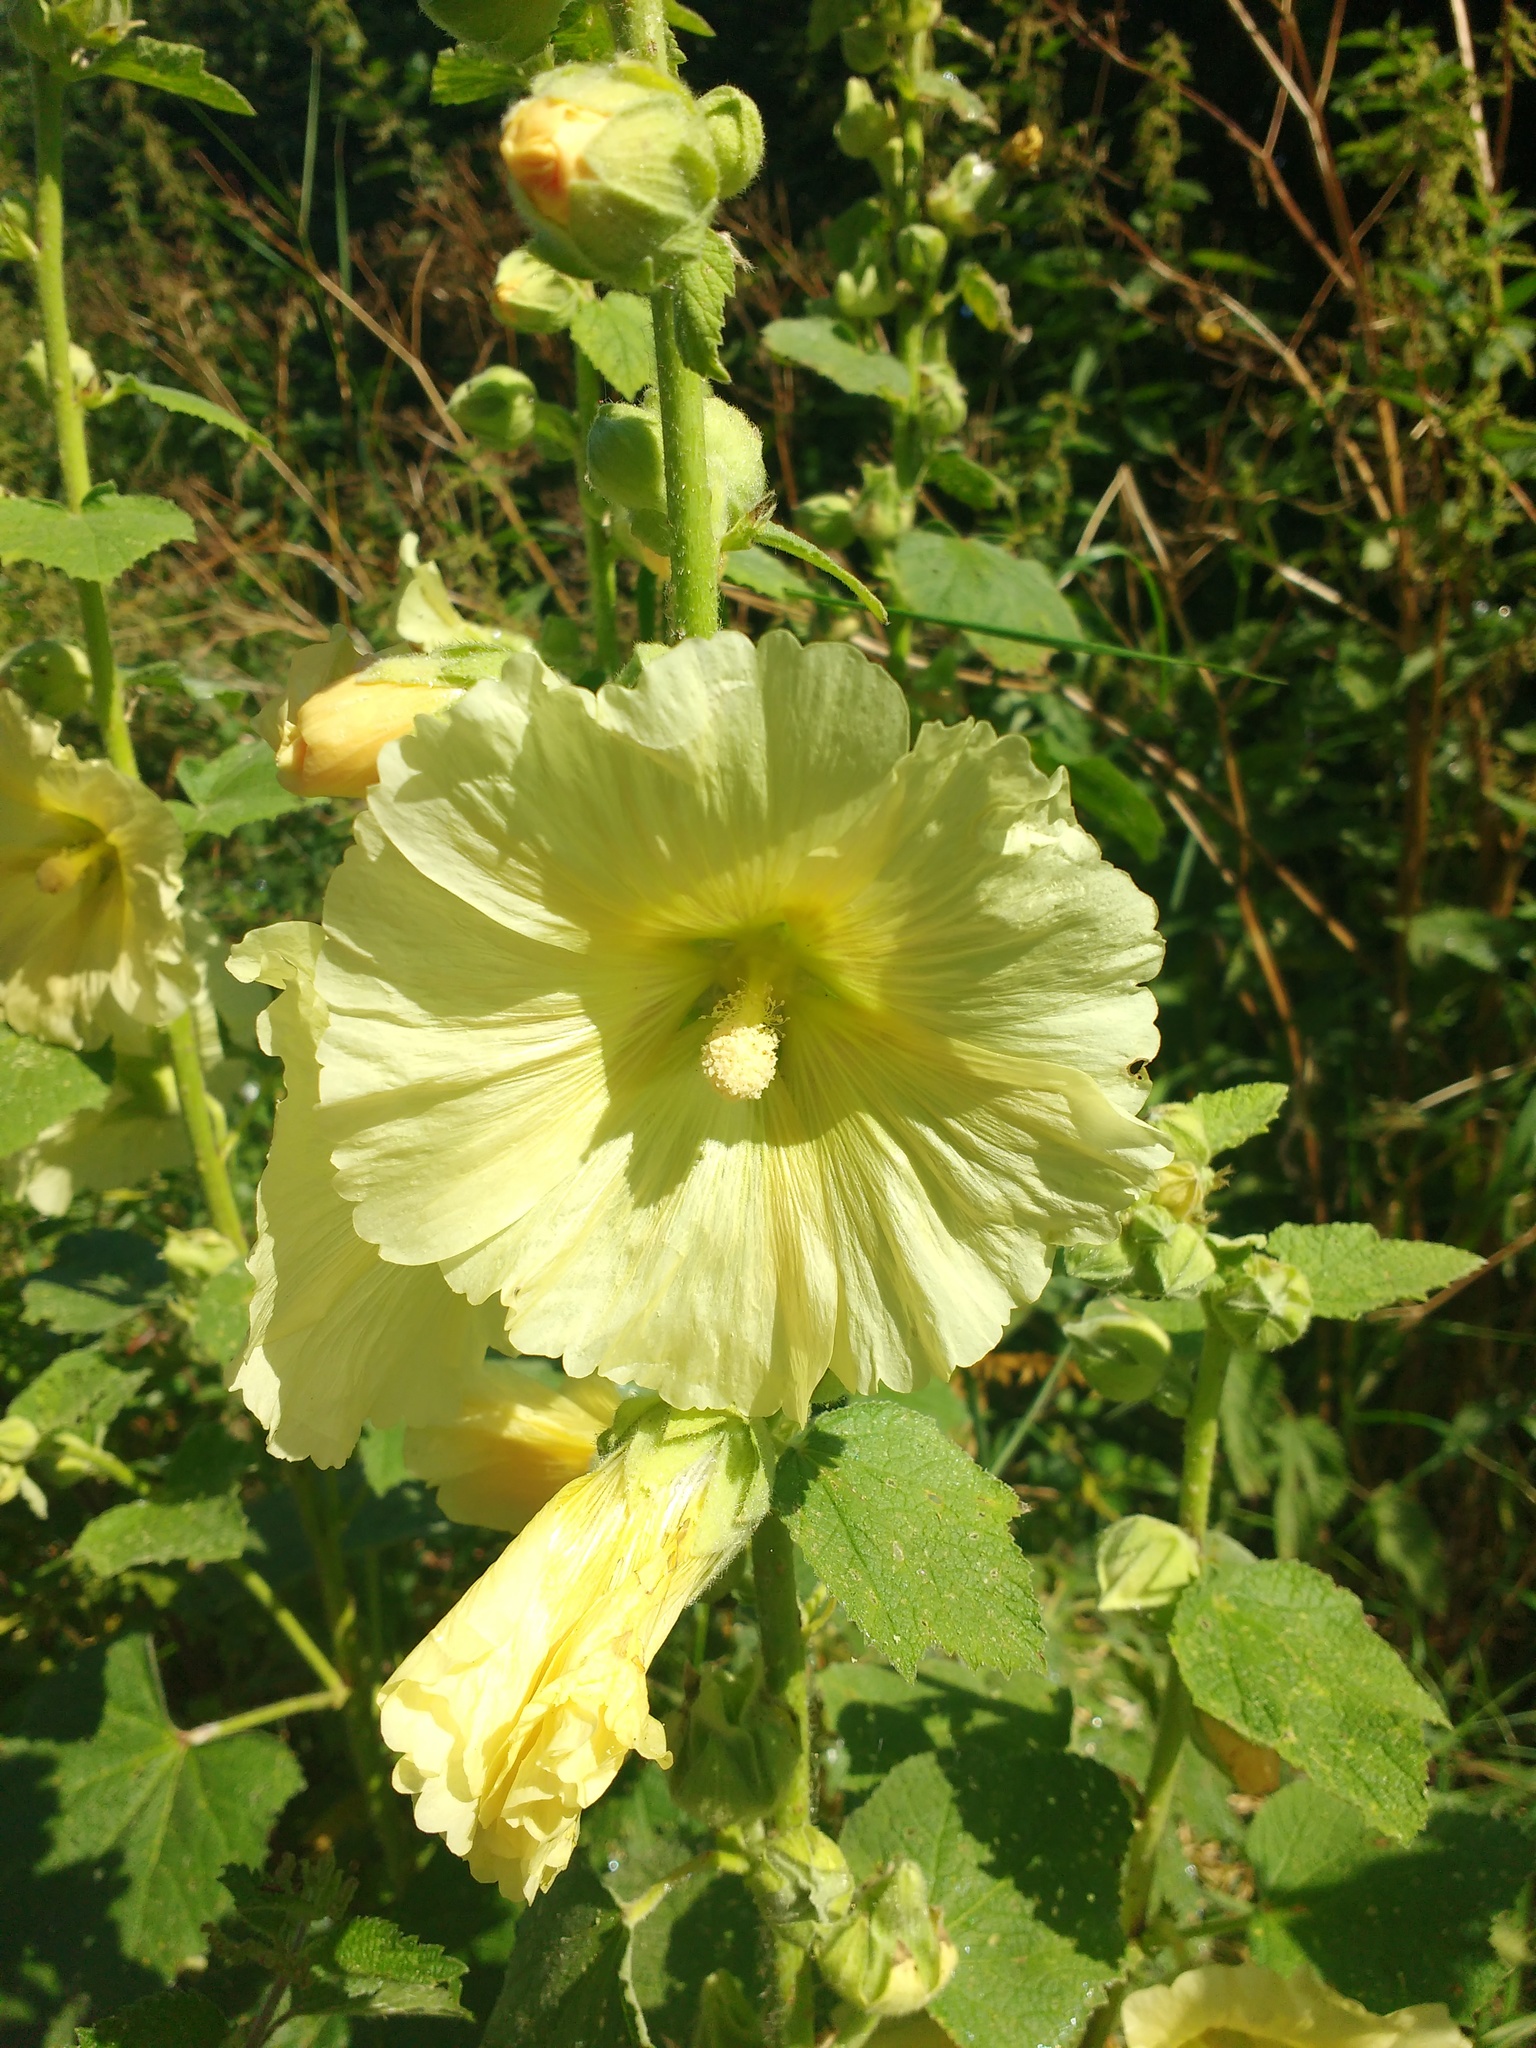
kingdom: Plantae
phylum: Tracheophyta
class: Magnoliopsida
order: Malvales
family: Malvaceae
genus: Alcea
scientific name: Alcea rosea
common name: Hollyhock
